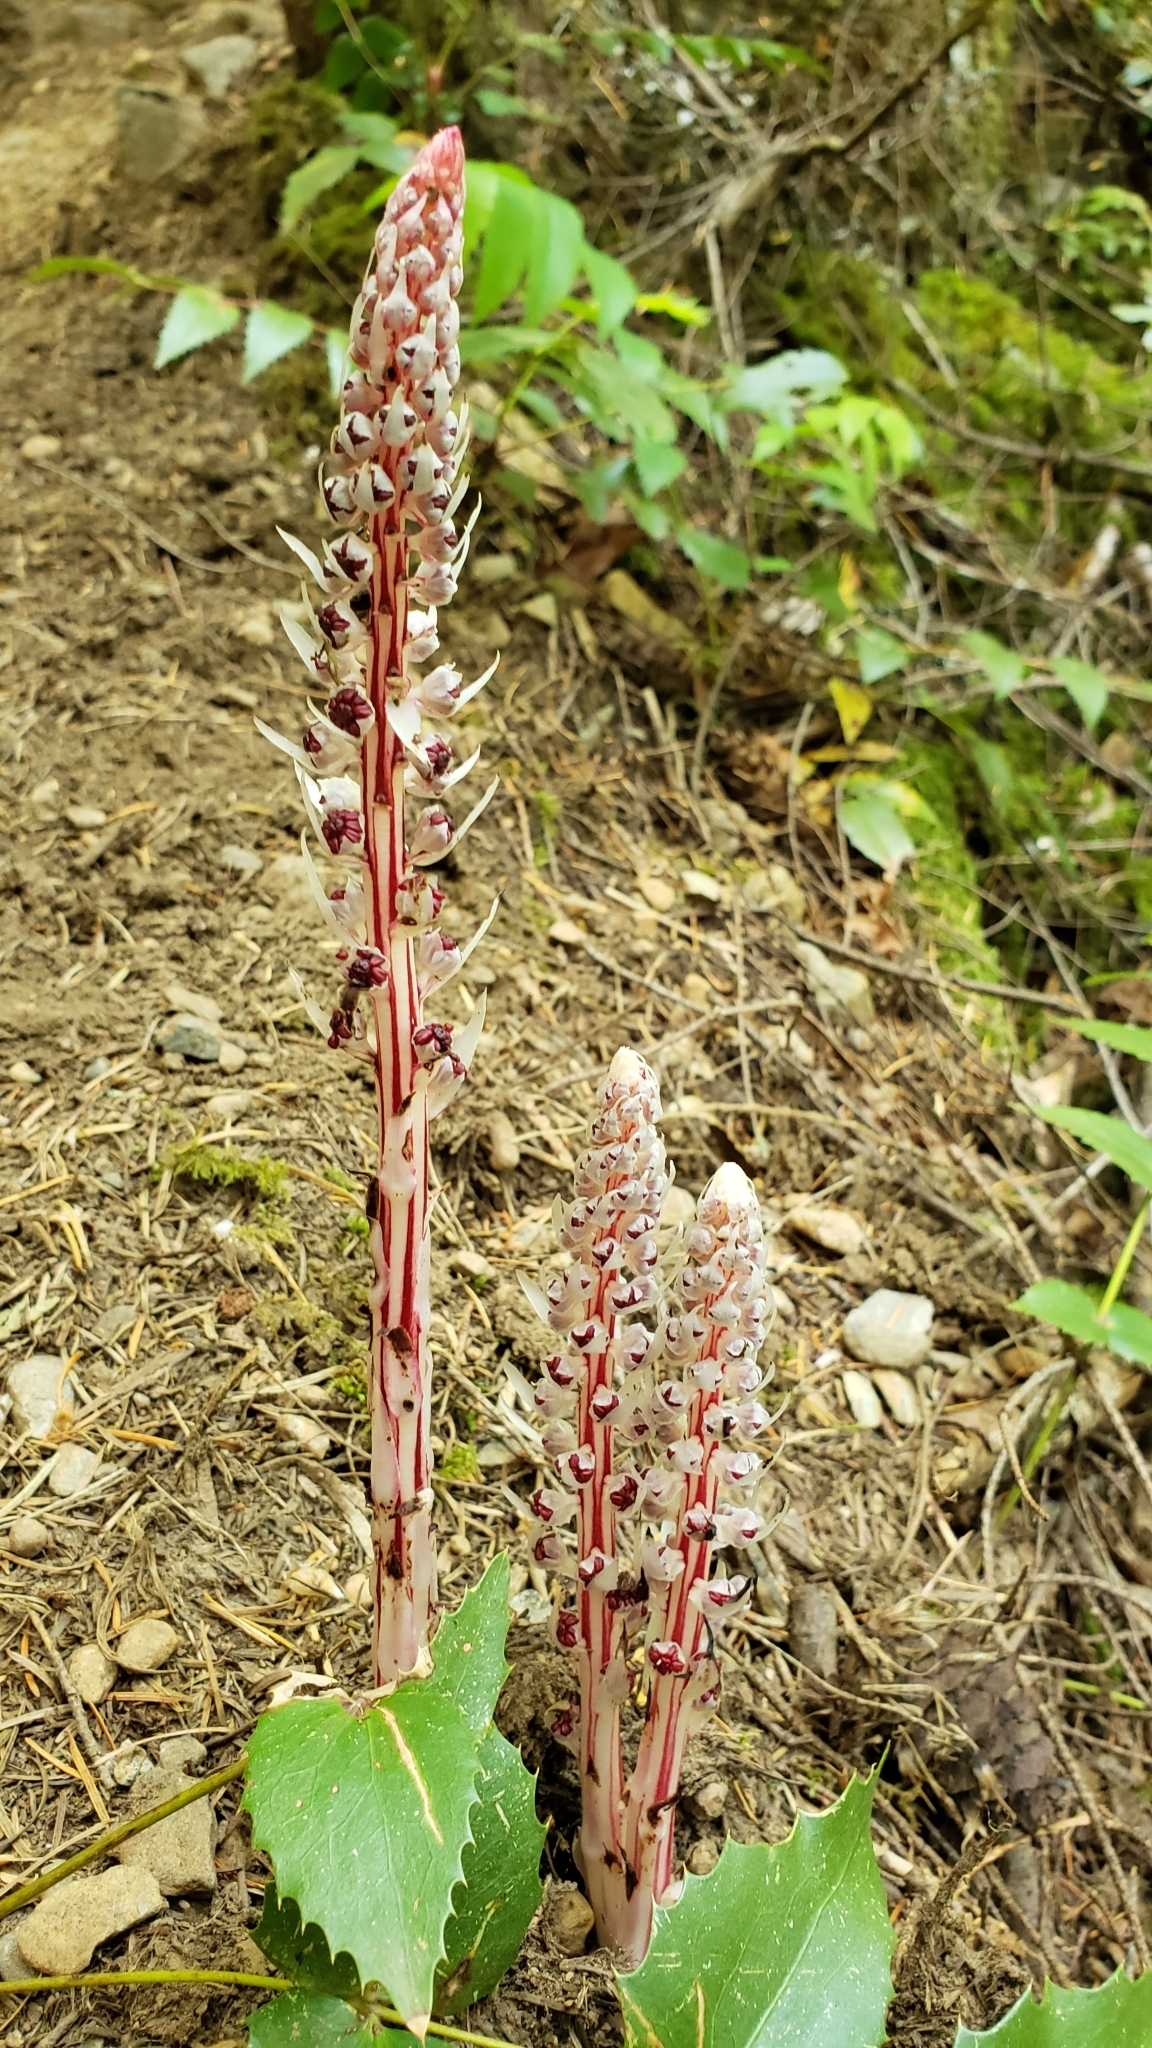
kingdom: Plantae
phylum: Tracheophyta
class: Magnoliopsida
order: Ericales
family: Ericaceae
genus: Allotropa
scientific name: Allotropa virgata
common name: Candy-striped allotropa
